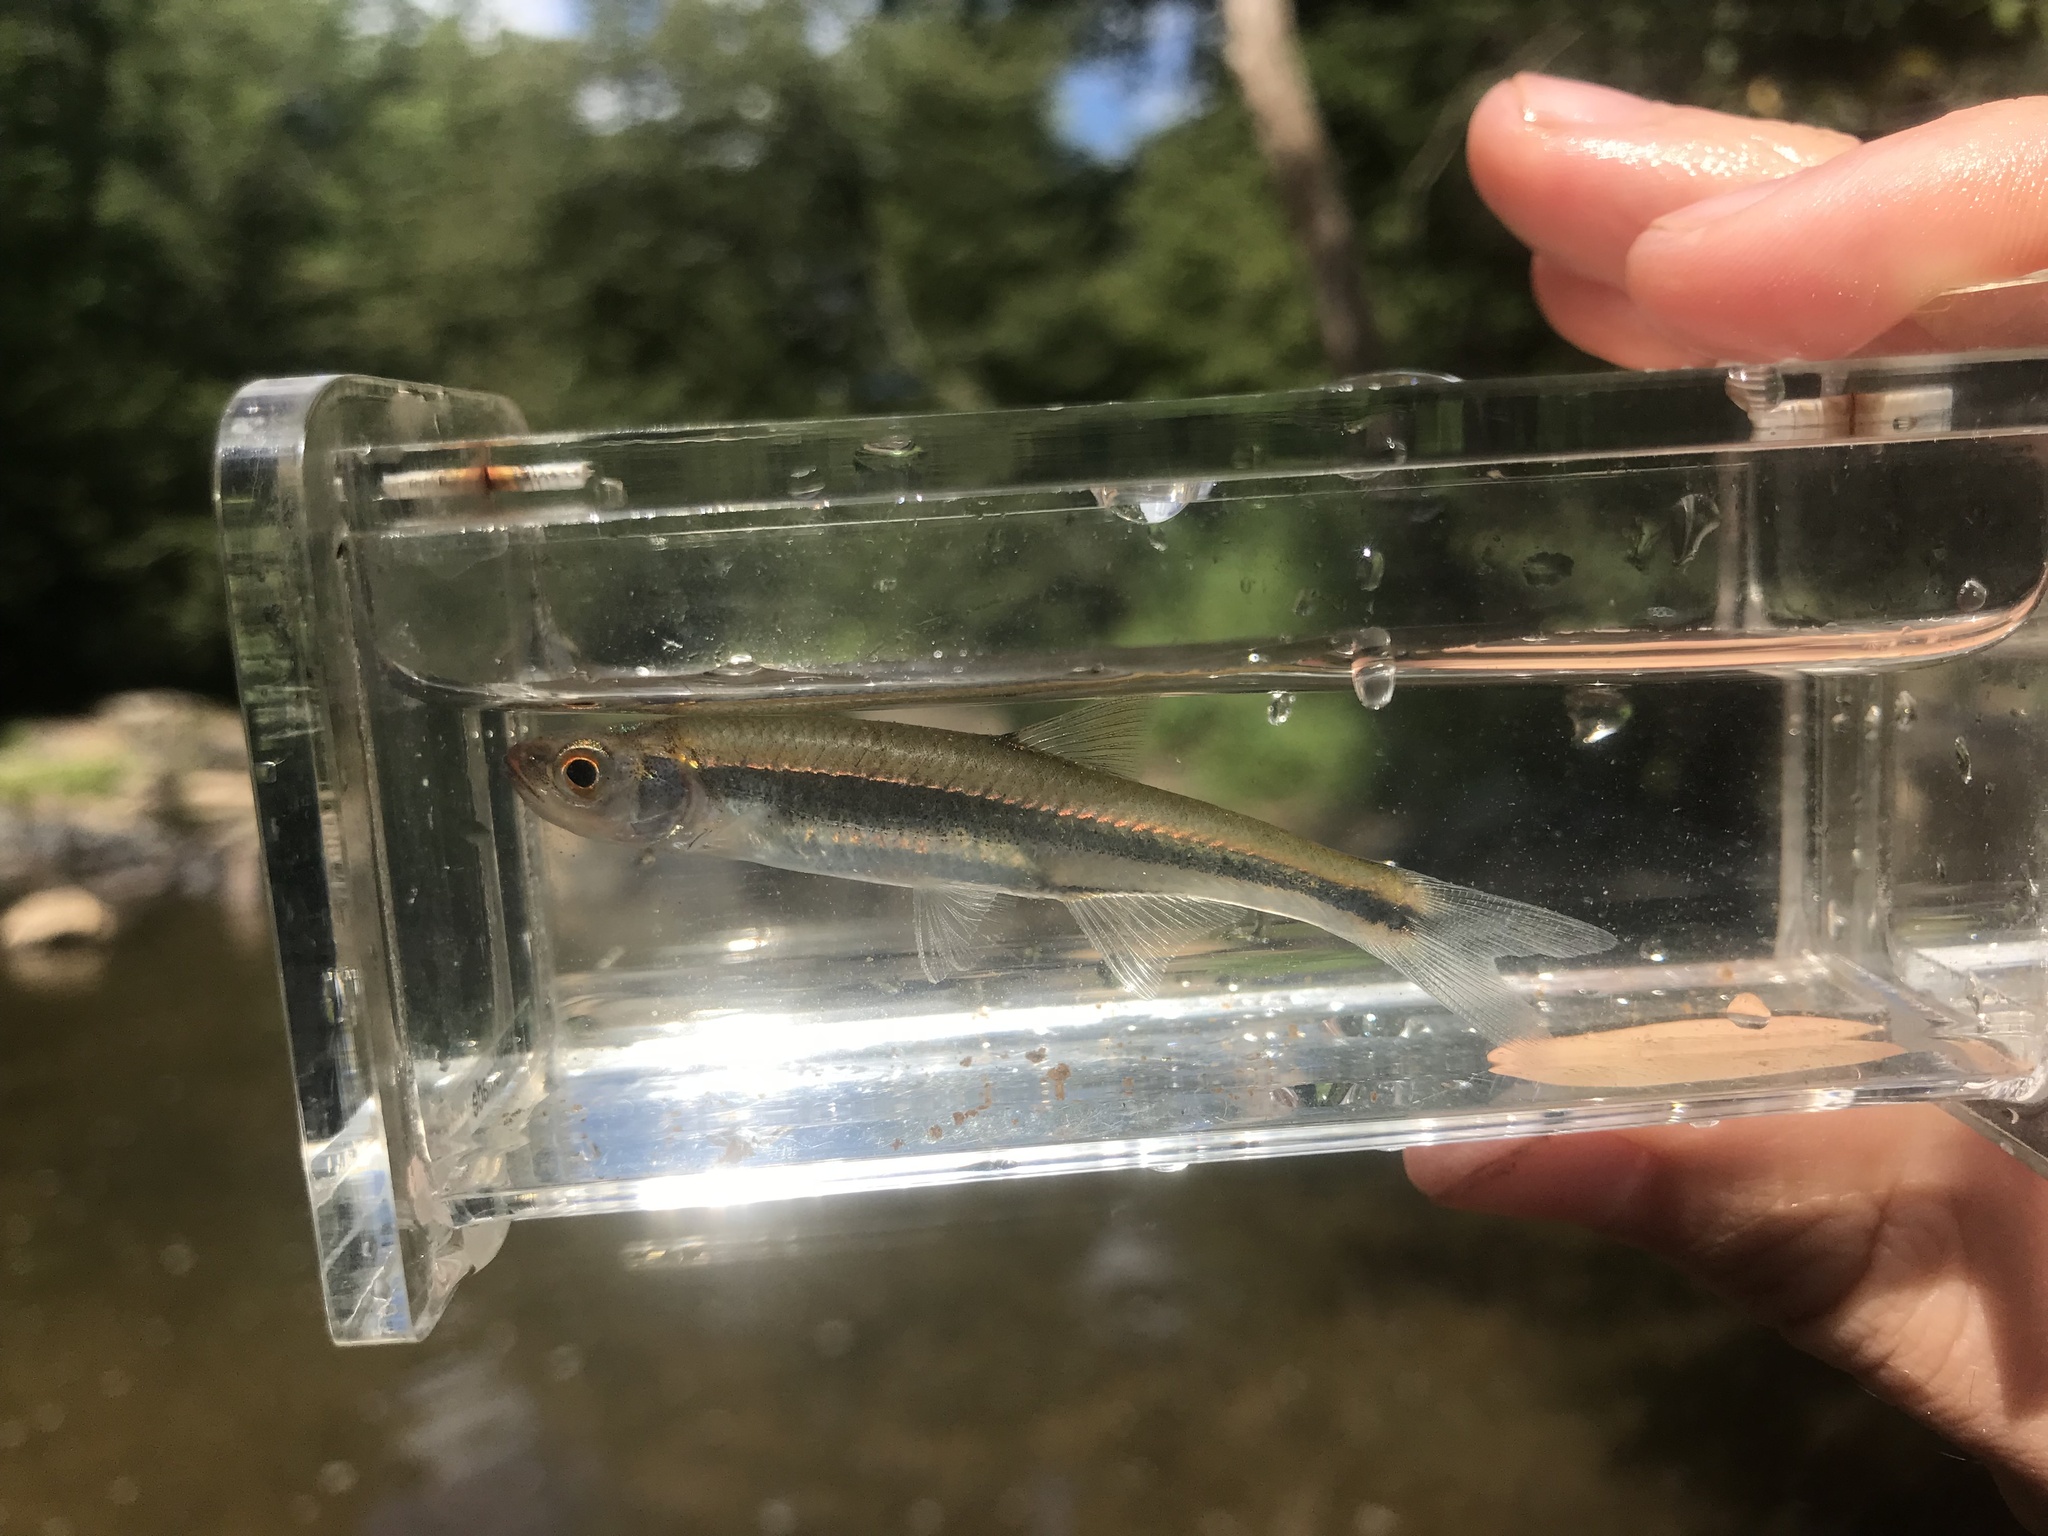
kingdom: Animalia
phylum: Chordata
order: Cypriniformes
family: Cyprinidae
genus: Lythrurus
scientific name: Lythrurus matutinus
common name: Pinewoods shiner
